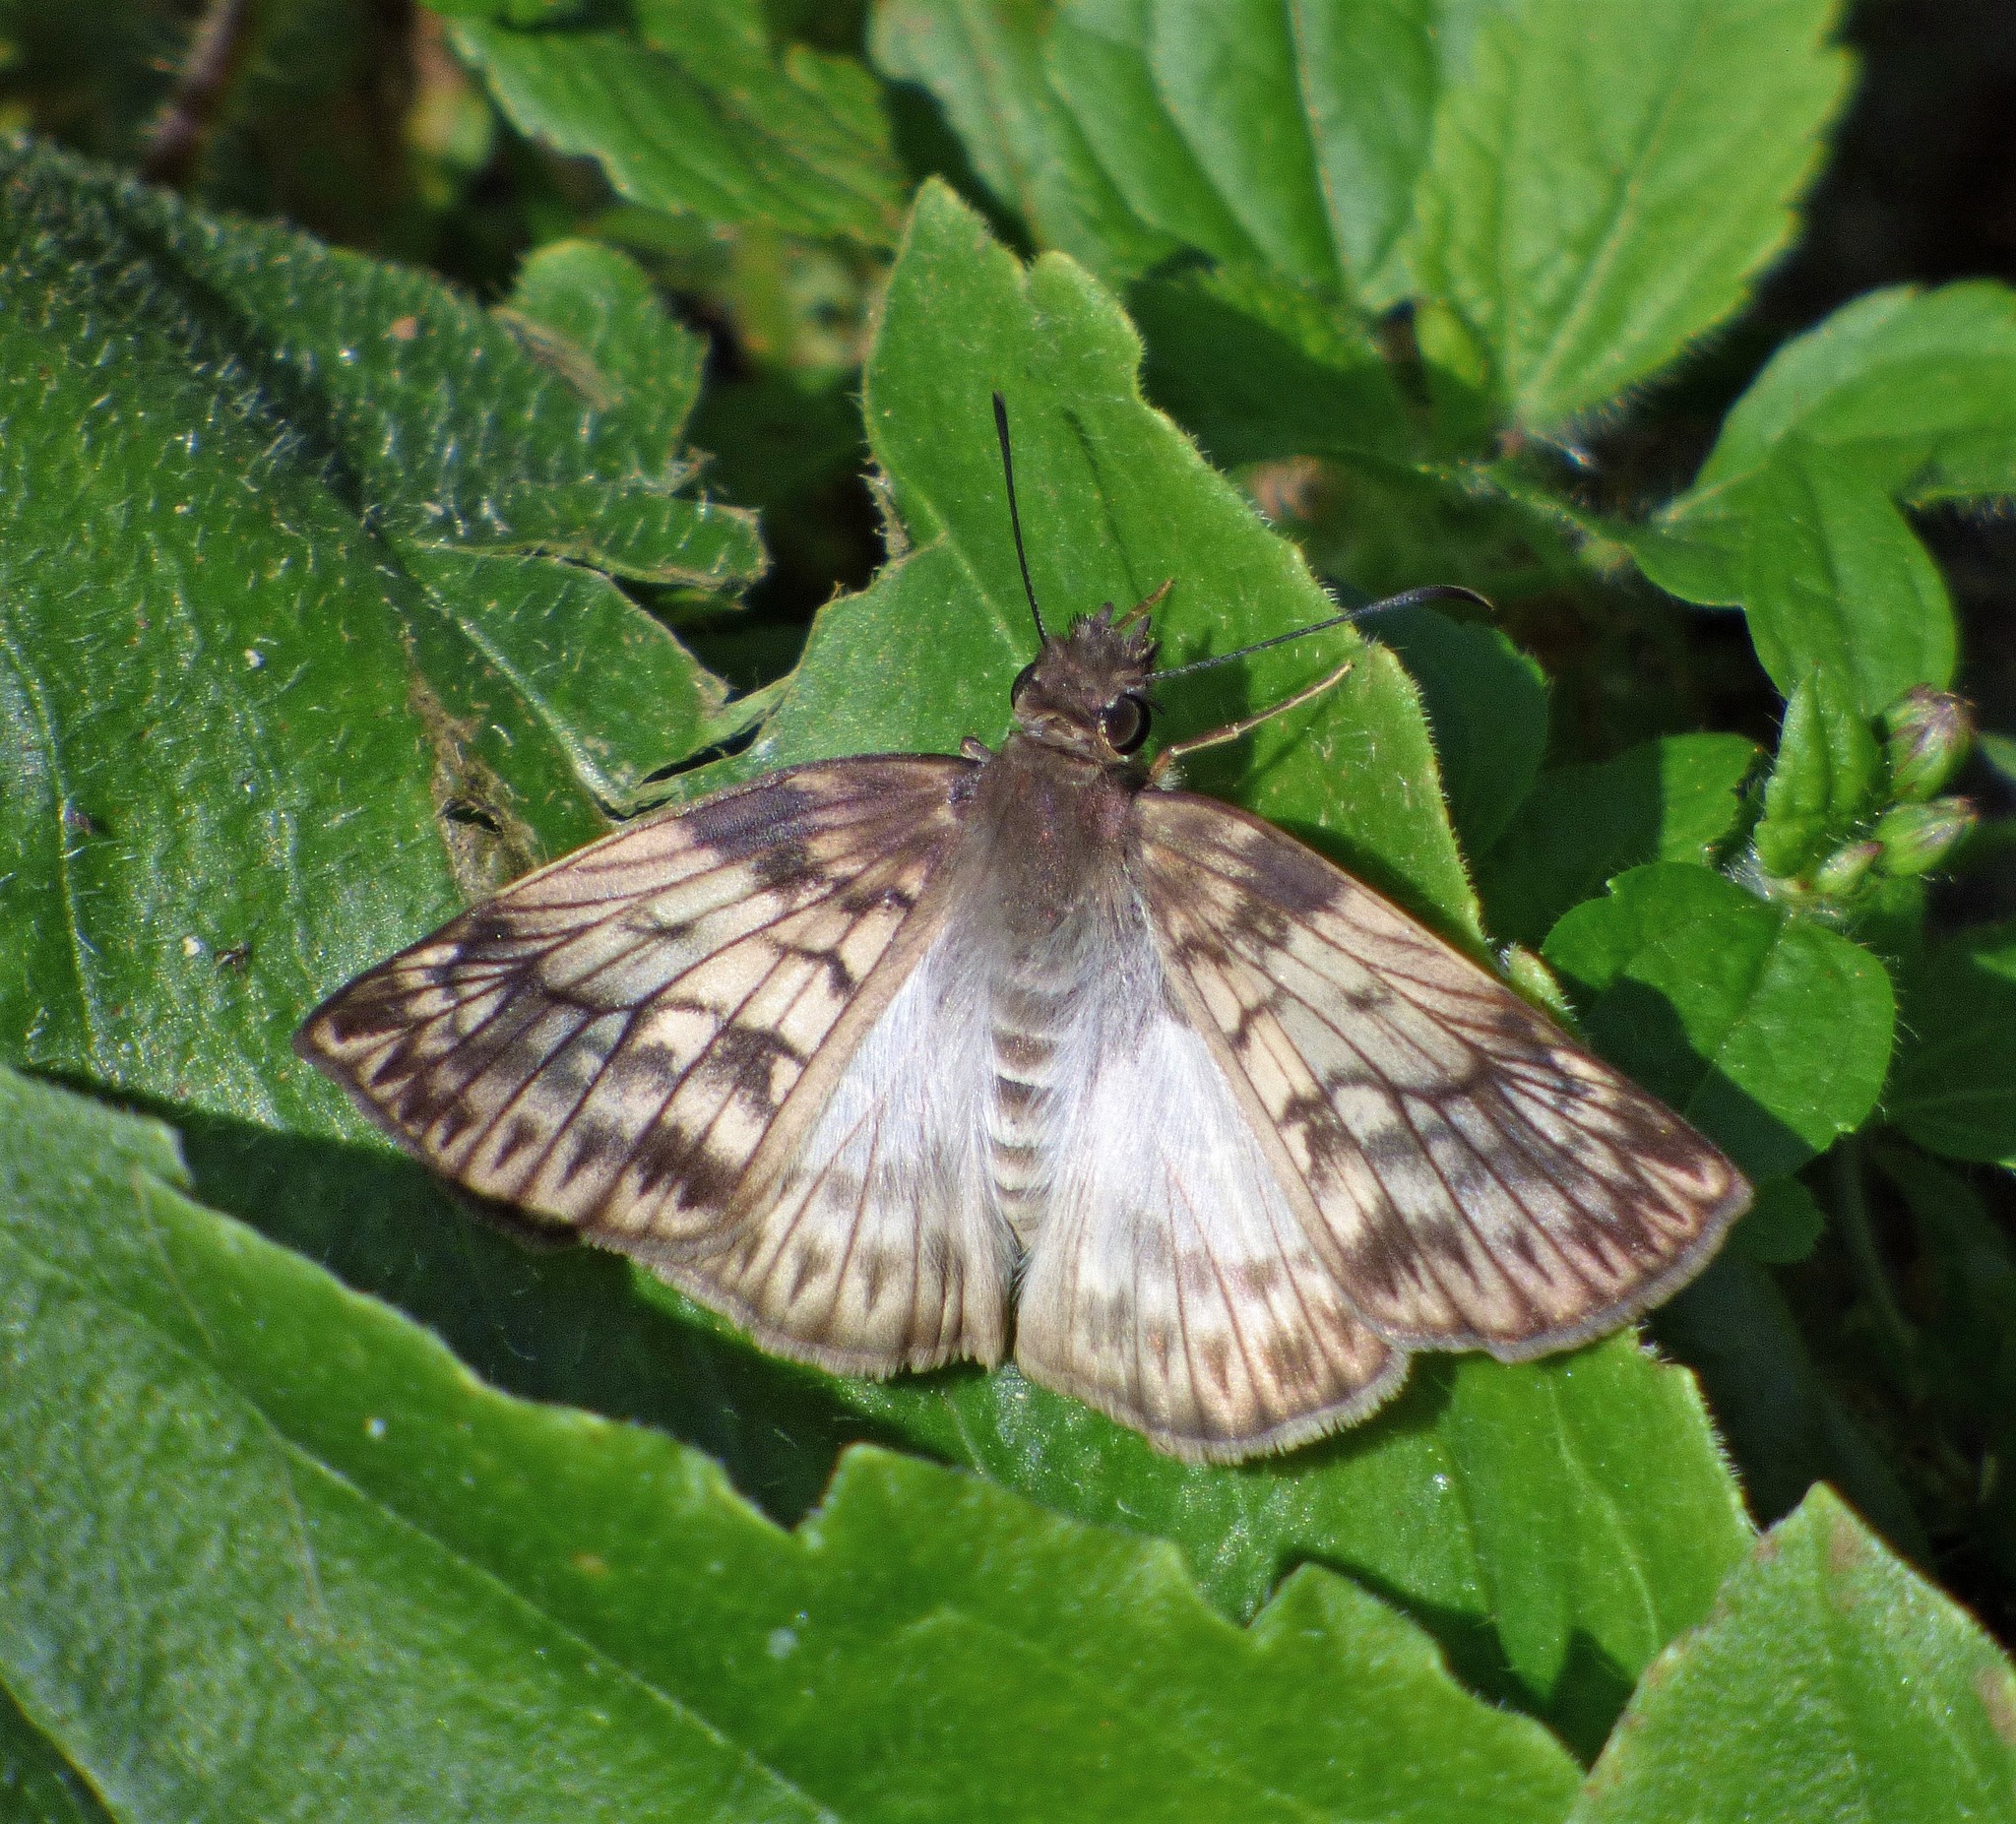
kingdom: Animalia
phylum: Arthropoda
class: Insecta
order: Lepidoptera
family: Hesperiidae
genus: Mylon
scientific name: Mylon maimon
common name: Common mylon
